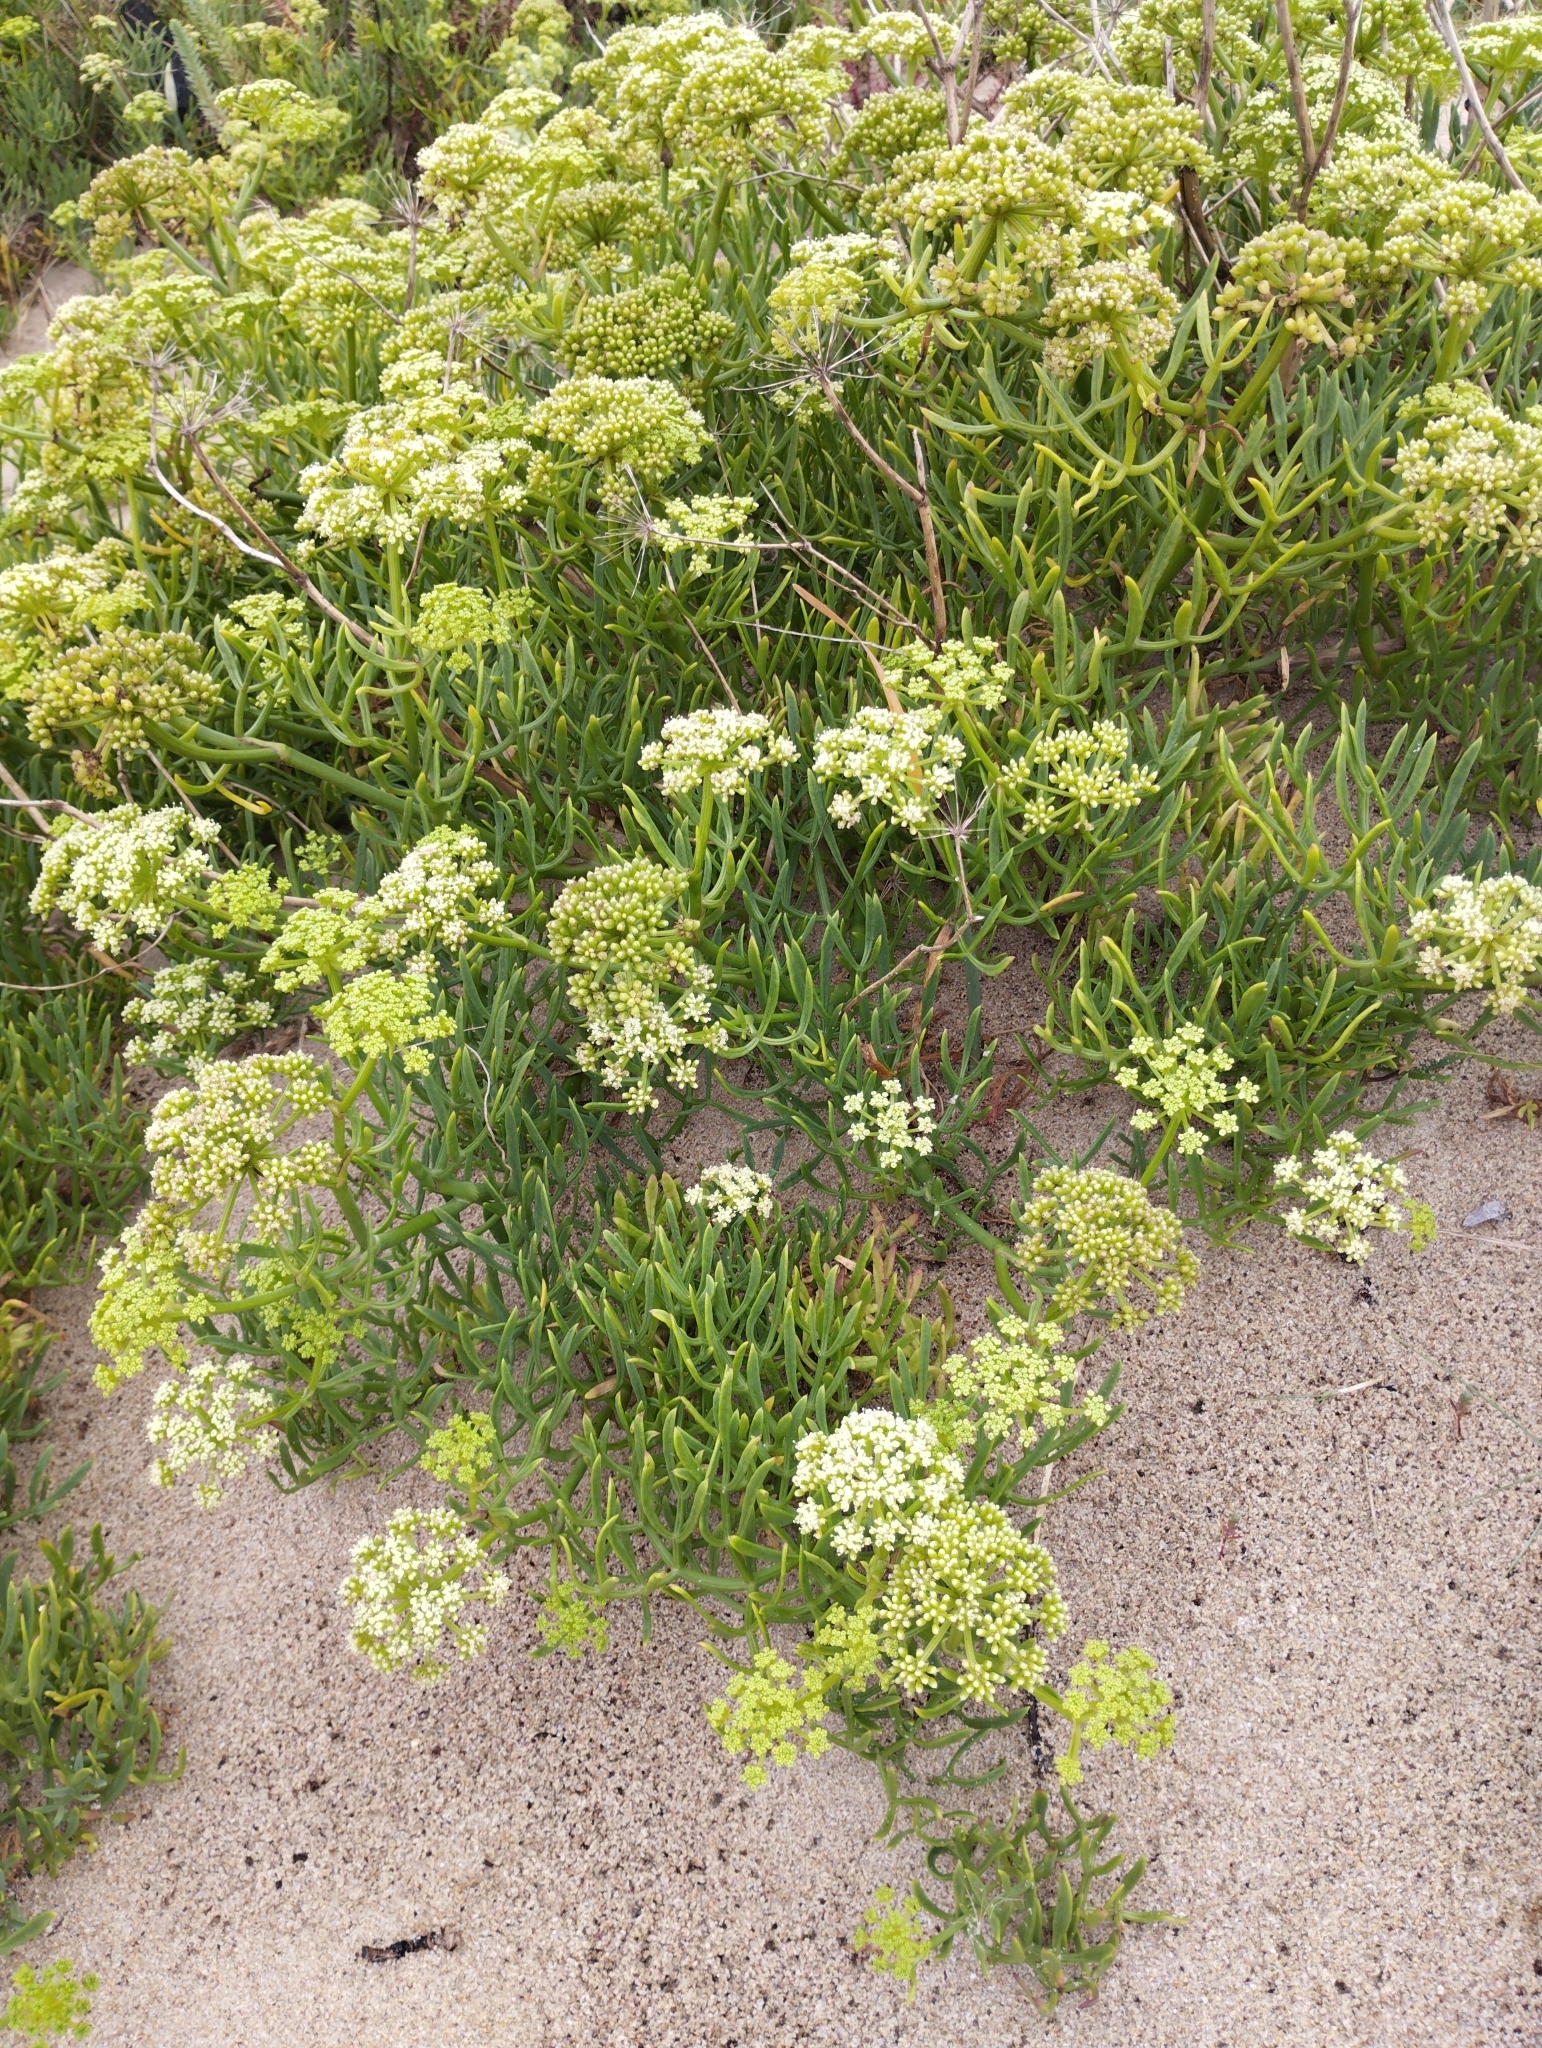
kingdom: Plantae
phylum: Tracheophyta
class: Magnoliopsida
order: Apiales
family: Apiaceae
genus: Crithmum
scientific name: Crithmum maritimum
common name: Rock samphire
